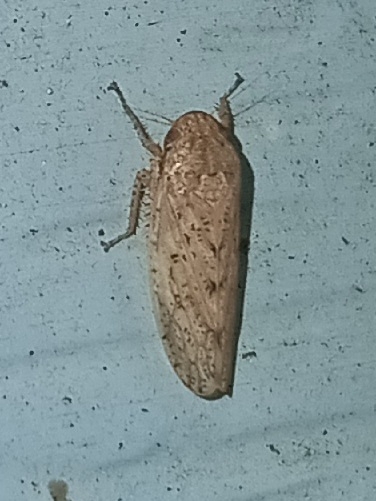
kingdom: Animalia
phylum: Arthropoda
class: Insecta
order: Hemiptera
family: Cicadellidae
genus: Curtara
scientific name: Curtara insularis
